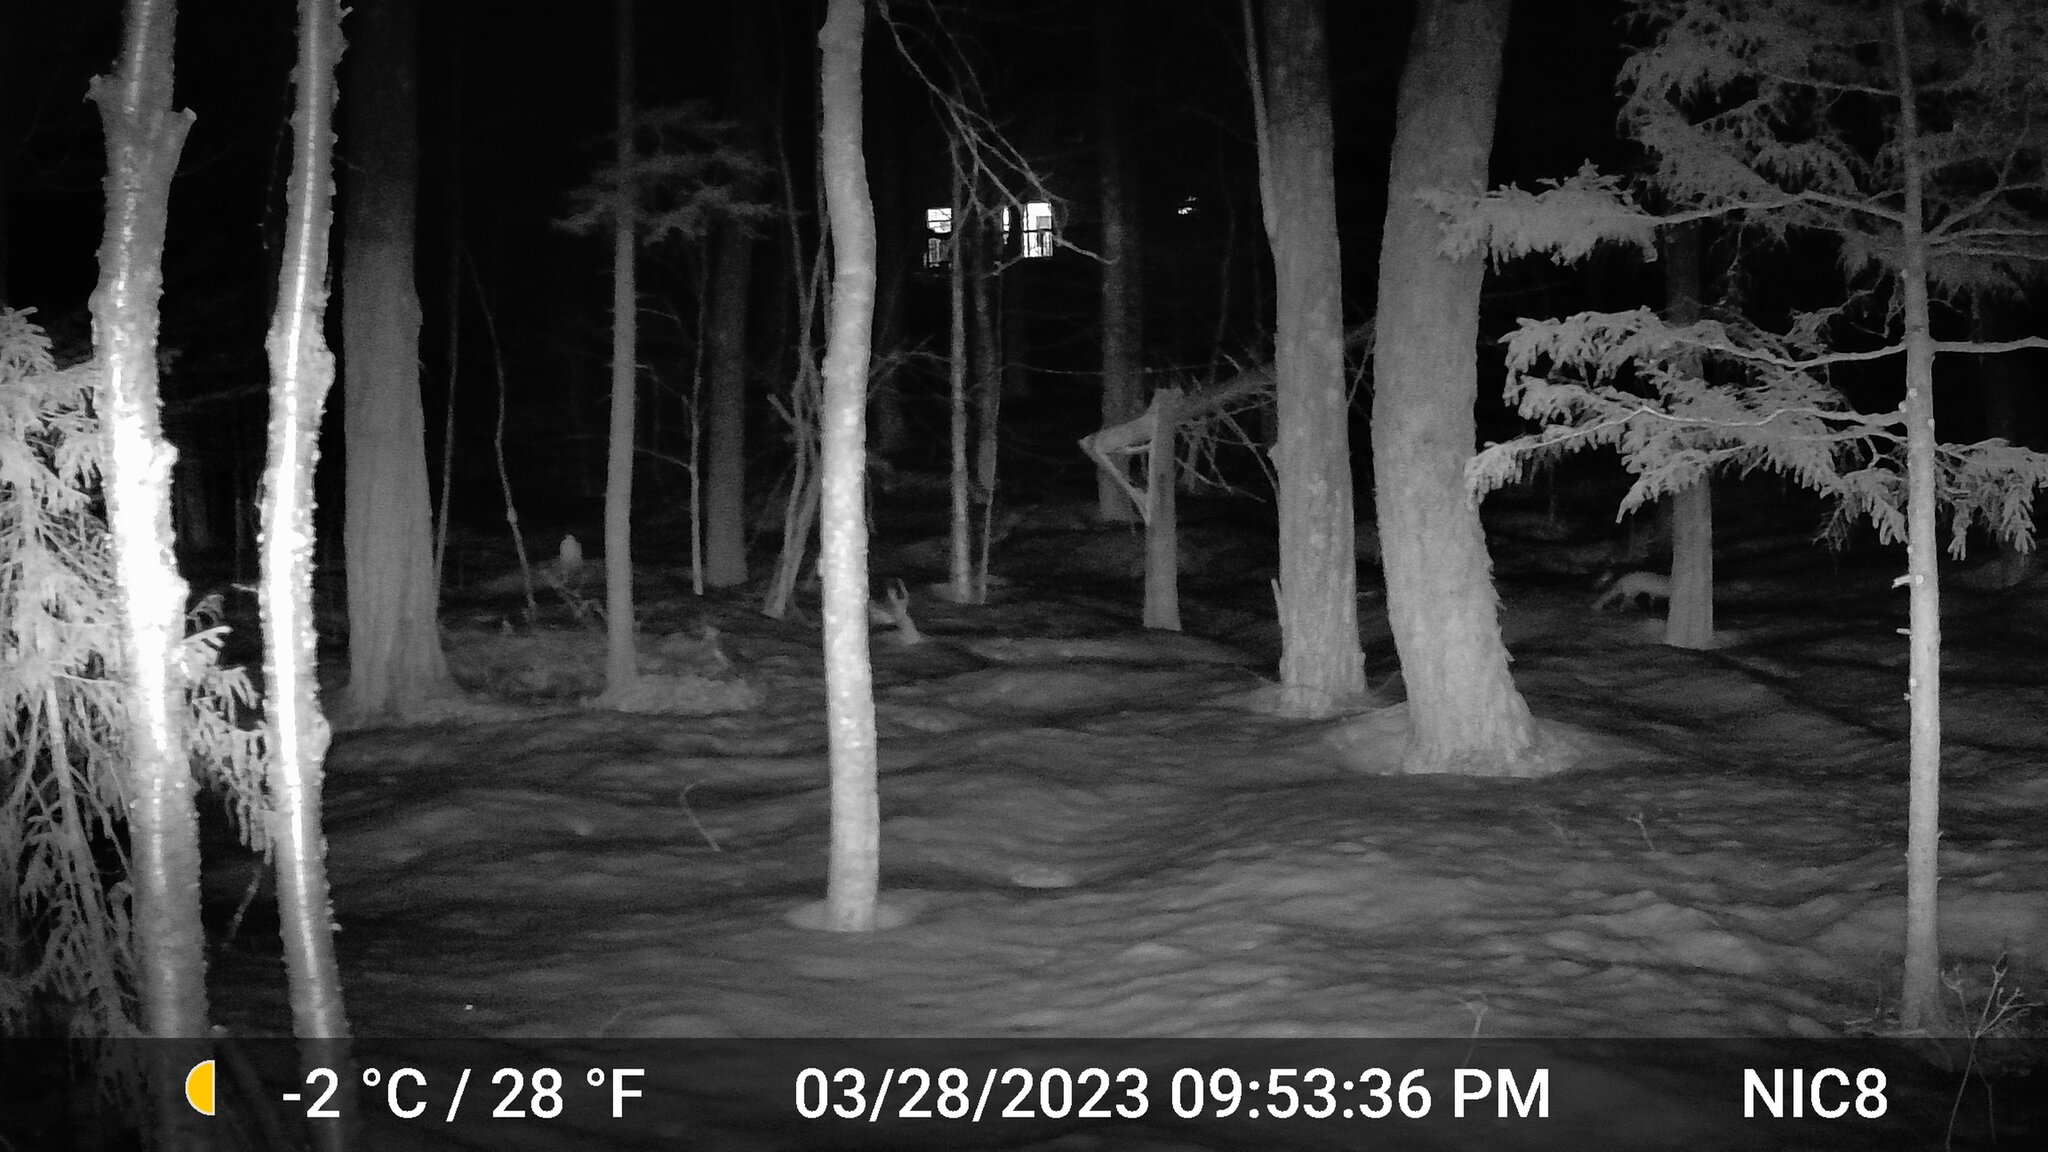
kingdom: Animalia
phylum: Chordata
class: Mammalia
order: Carnivora
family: Canidae
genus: Vulpes
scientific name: Vulpes vulpes
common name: Red fox
